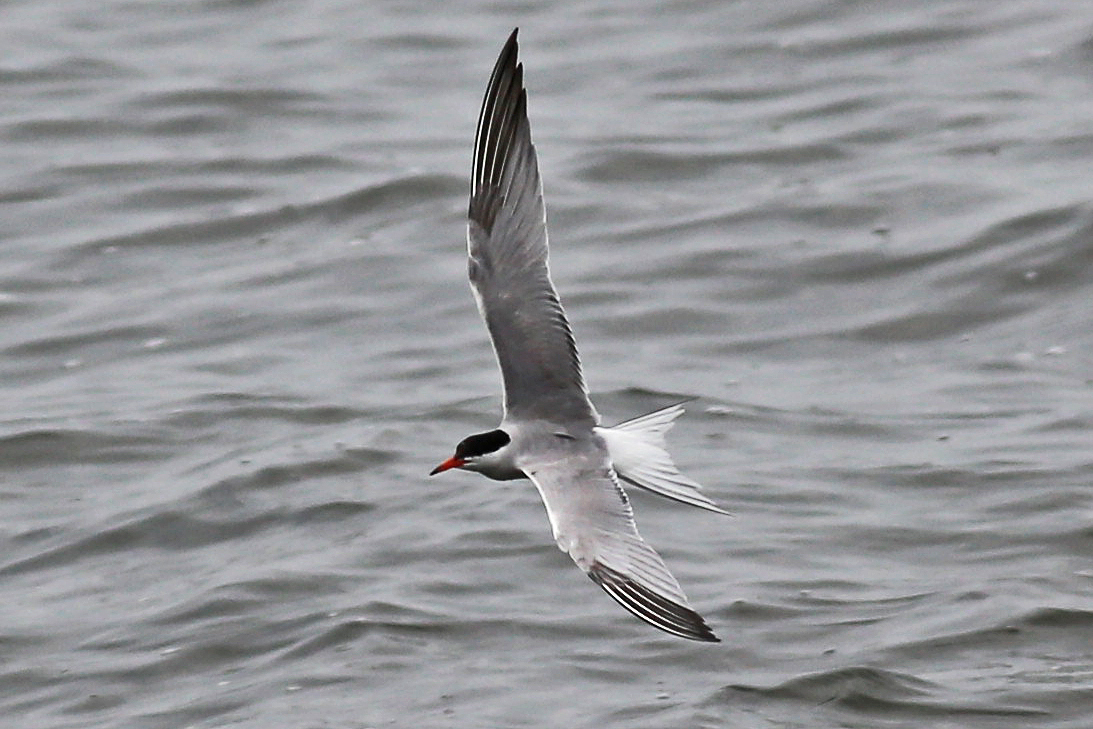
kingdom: Animalia
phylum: Chordata
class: Aves
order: Charadriiformes
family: Laridae
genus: Sterna
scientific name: Sterna hirundo
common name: Common tern
